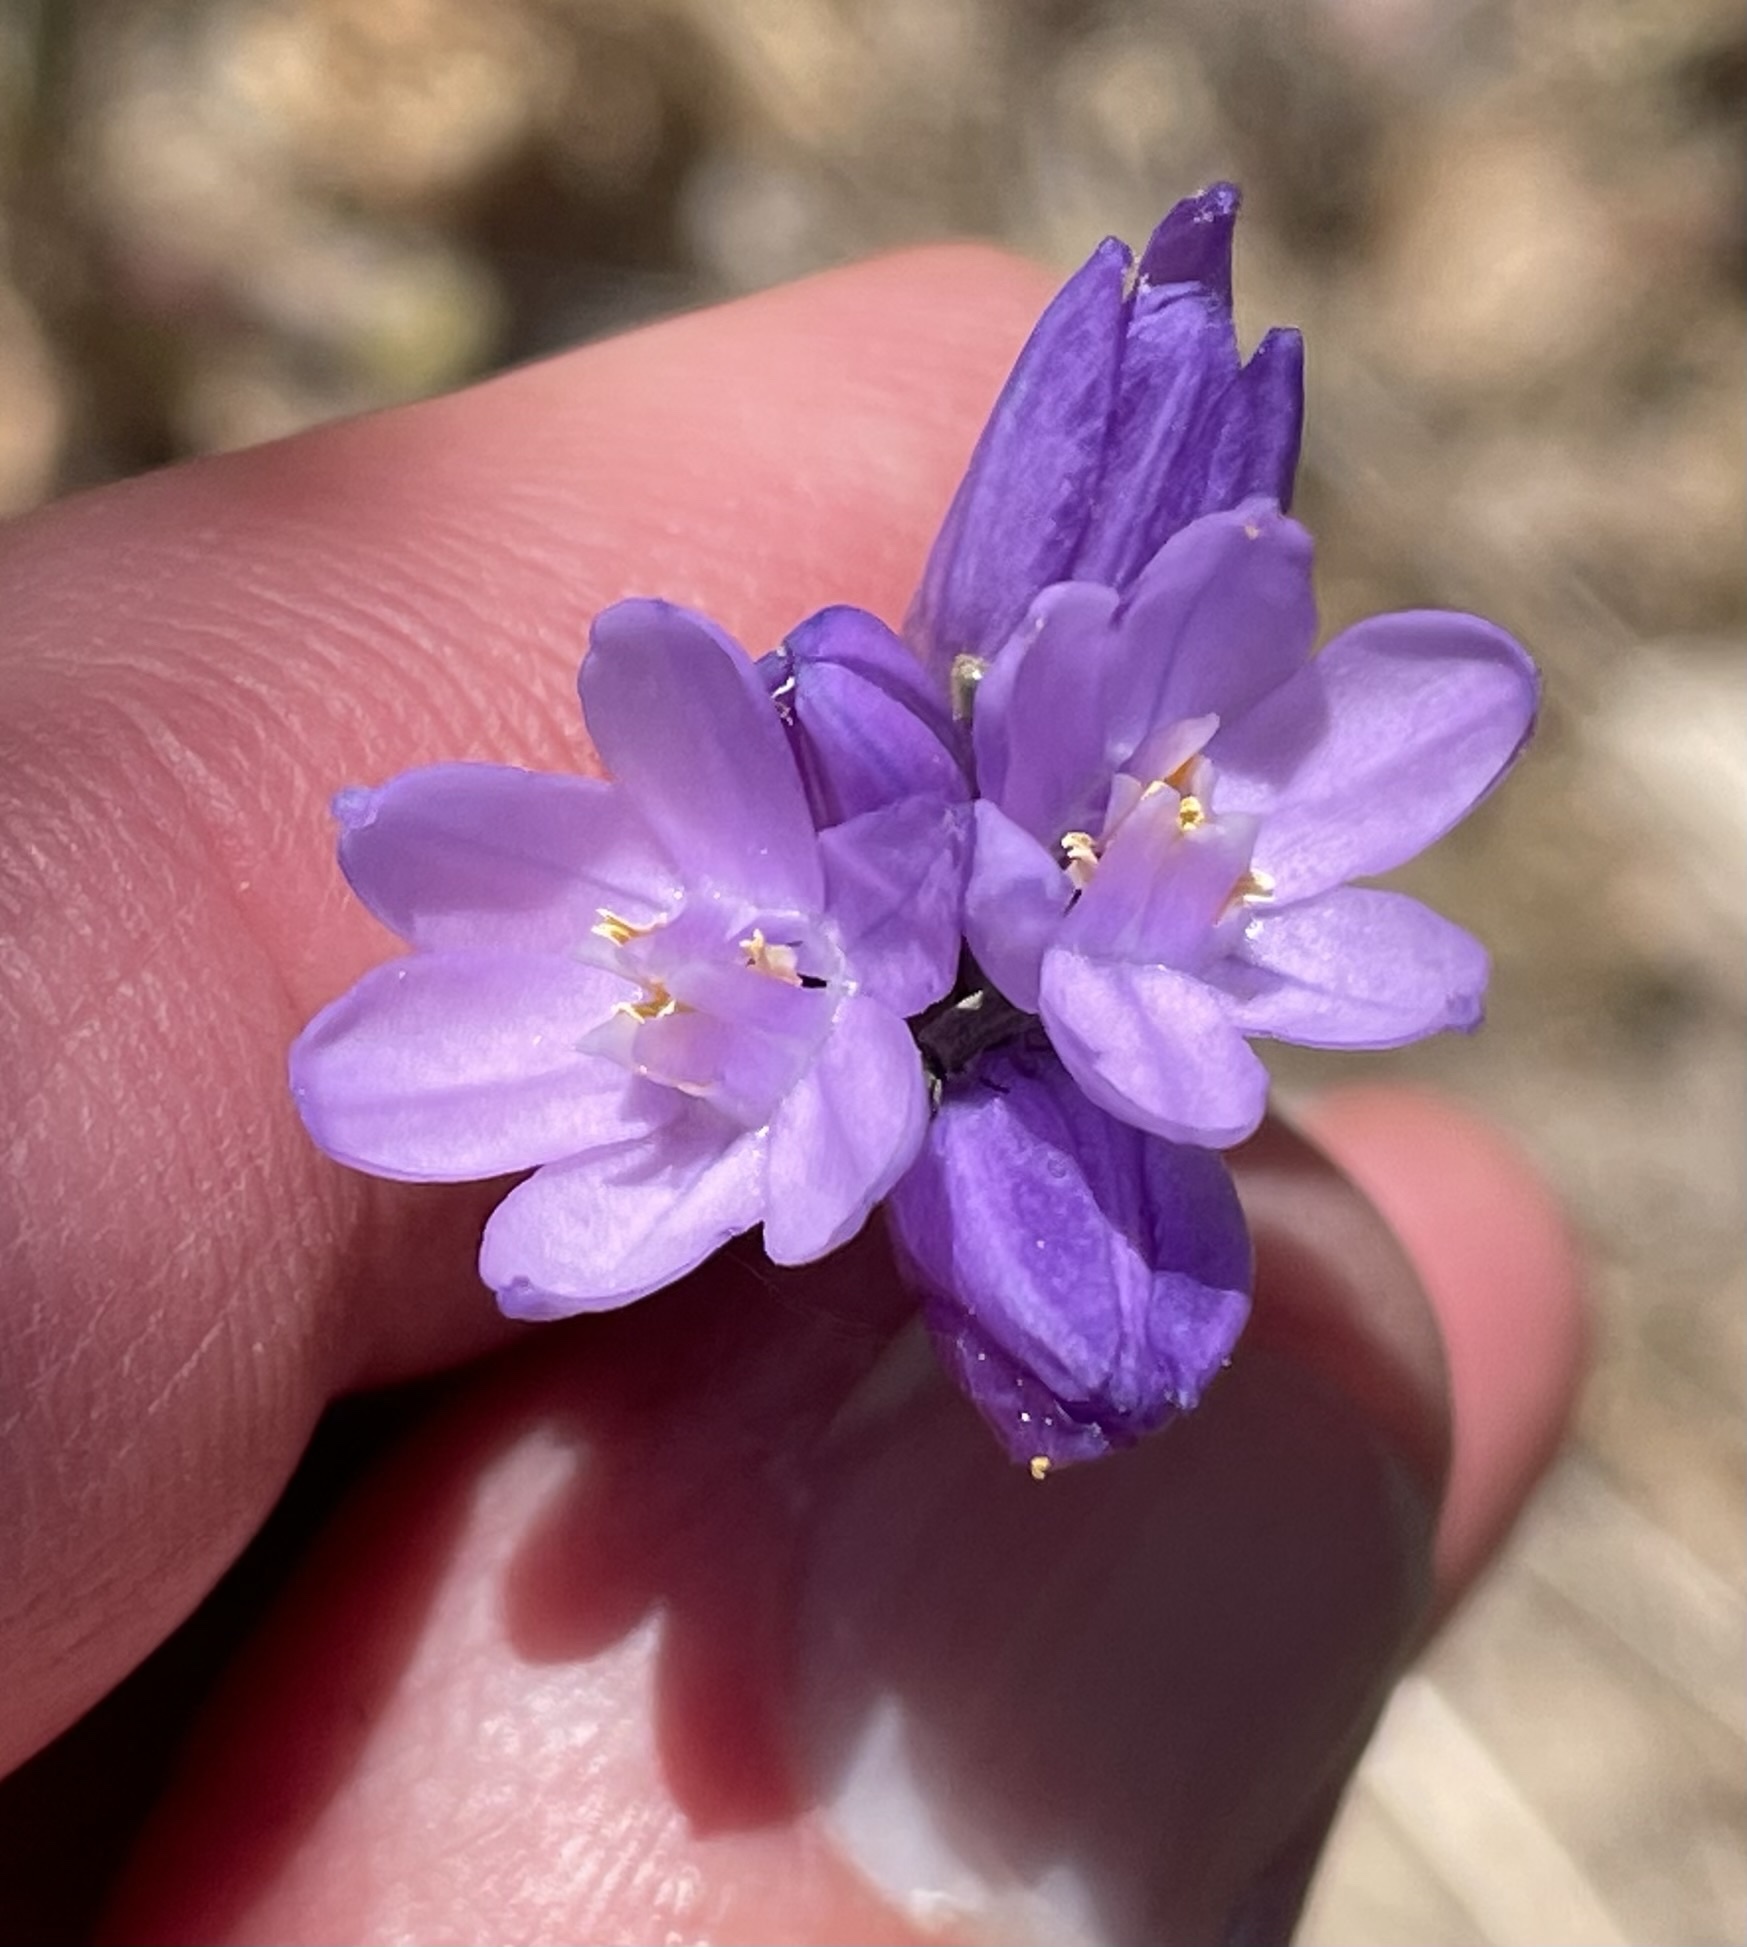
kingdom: Plantae
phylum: Tracheophyta
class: Liliopsida
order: Asparagales
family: Asparagaceae
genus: Dipterostemon
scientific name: Dipterostemon capitatus
